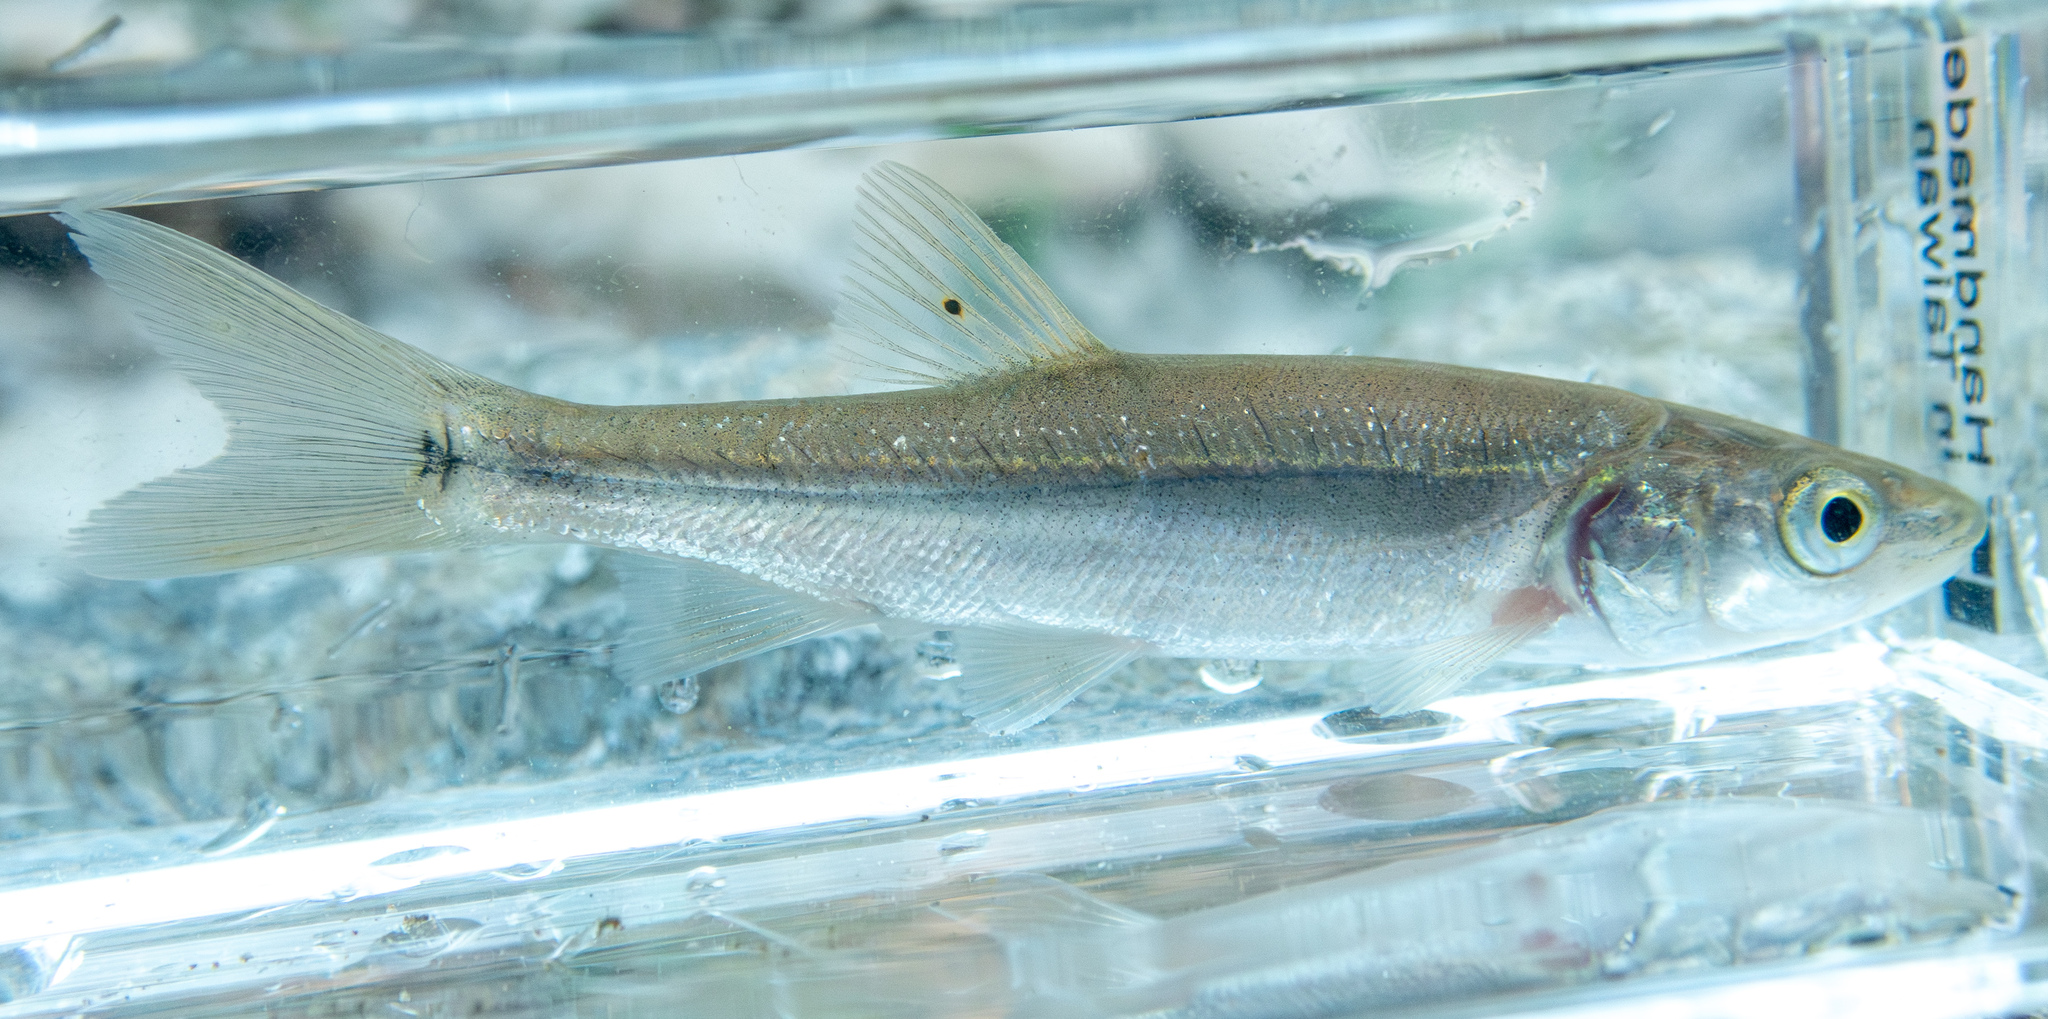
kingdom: Animalia
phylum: Chordata
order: Cypriniformes
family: Cyprinidae
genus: Ptychocheilus
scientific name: Ptychocheilus grandis
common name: Sacramento pikeminnow
